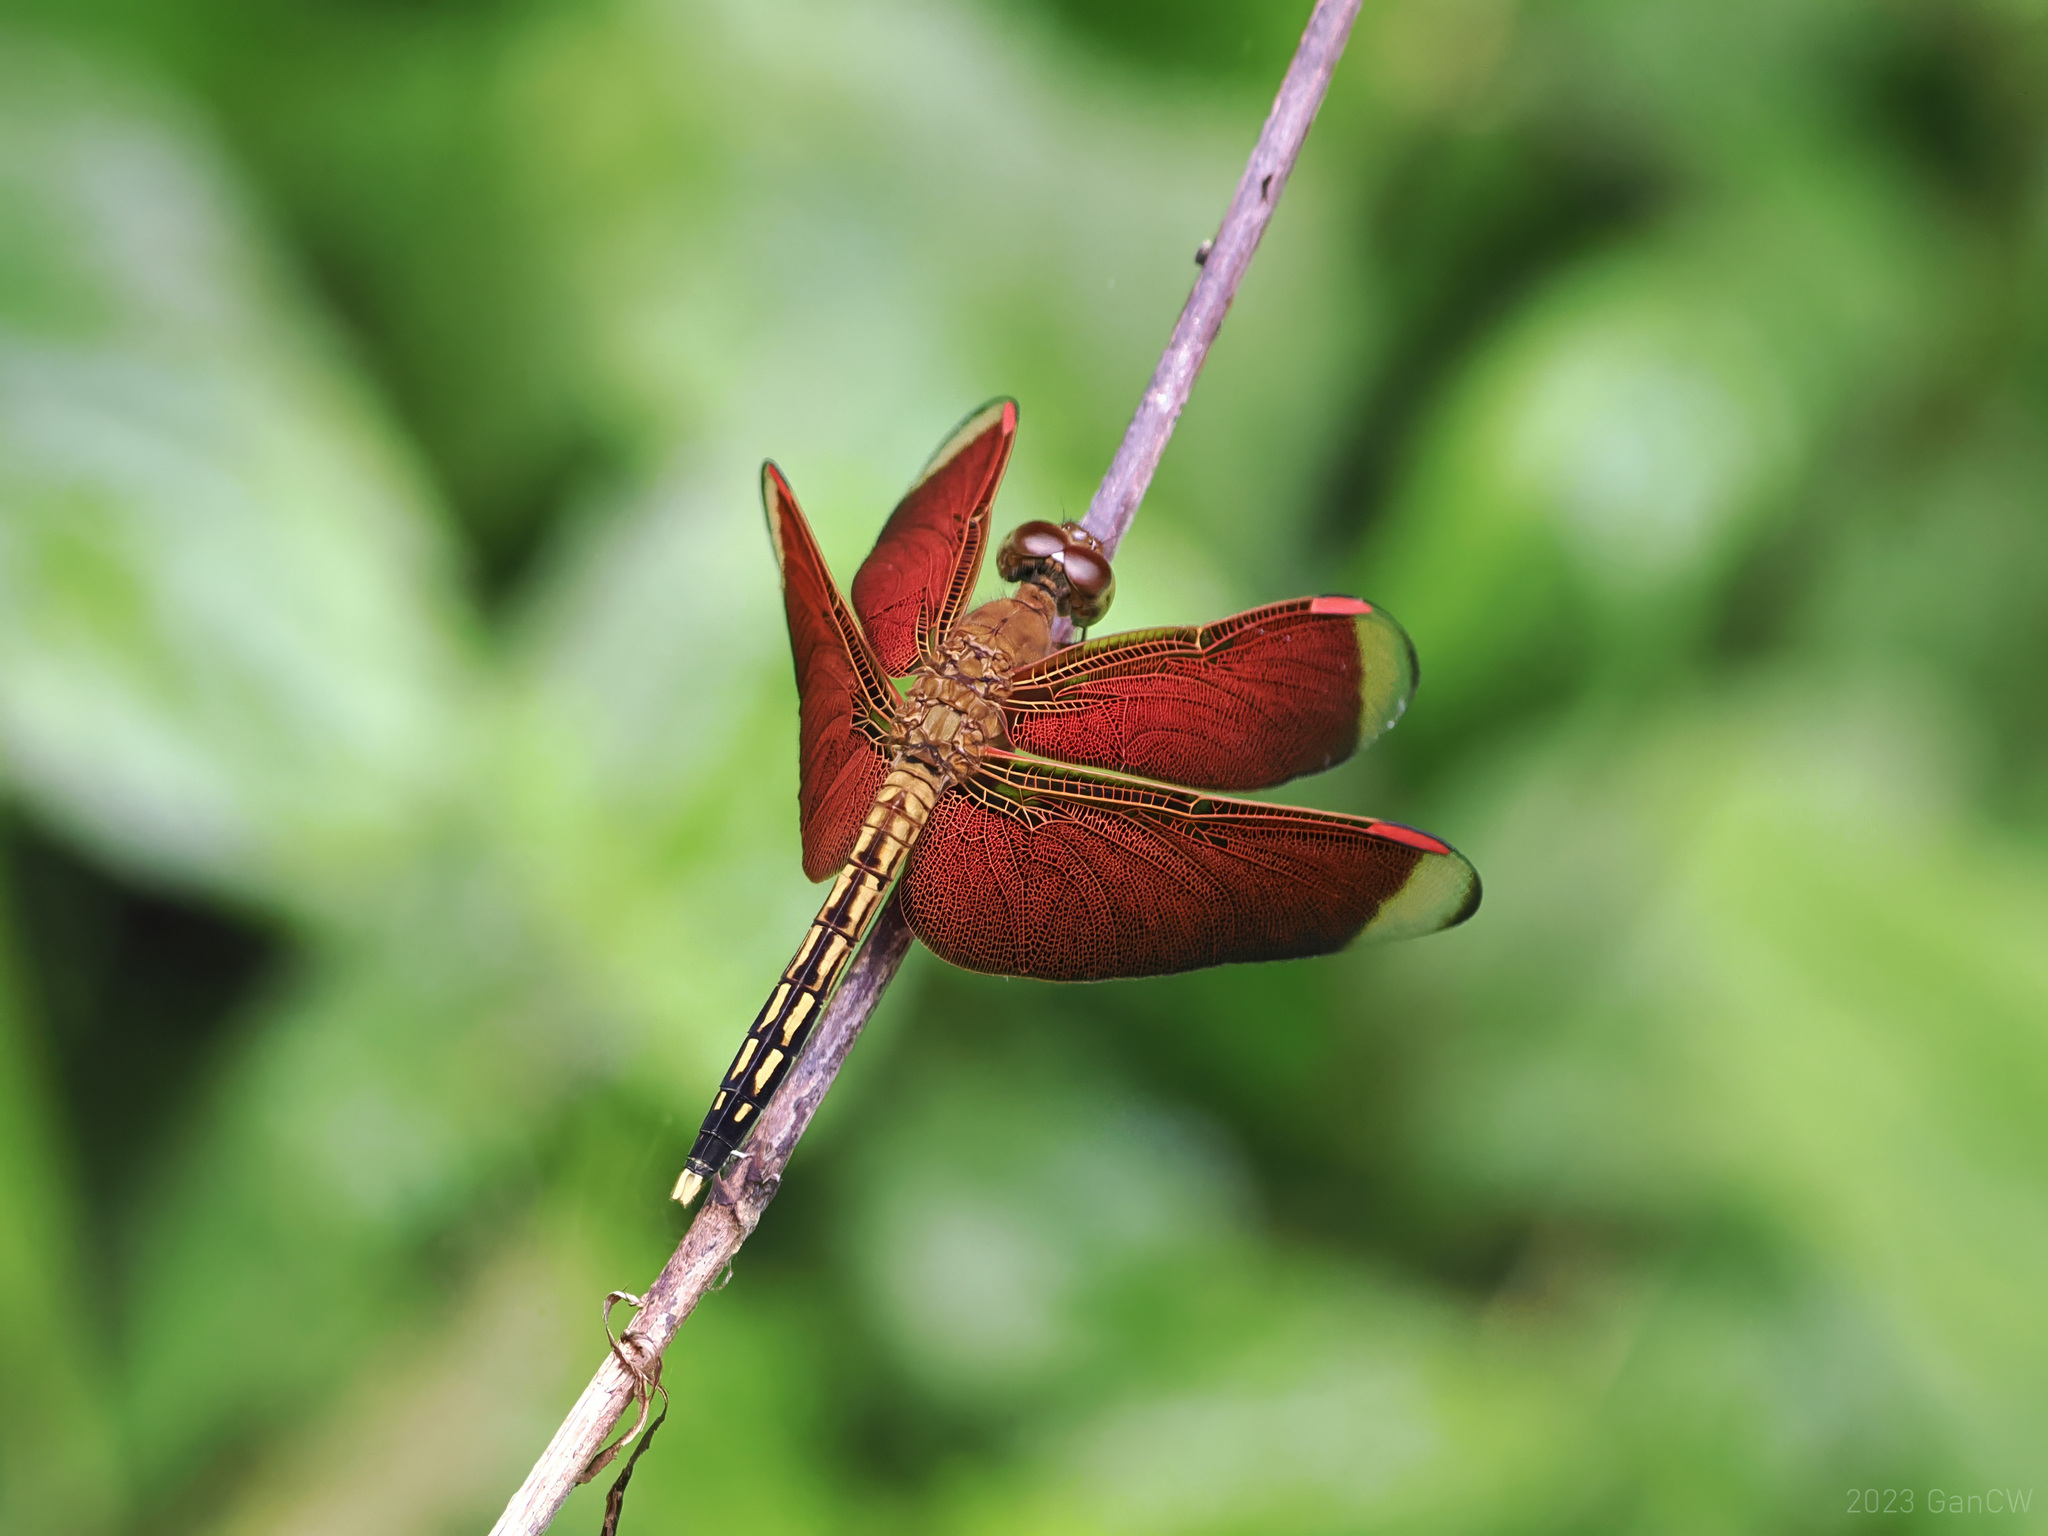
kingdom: Animalia
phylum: Arthropoda
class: Insecta
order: Odonata
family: Libellulidae
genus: Neurothemis
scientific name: Neurothemis manadensis
